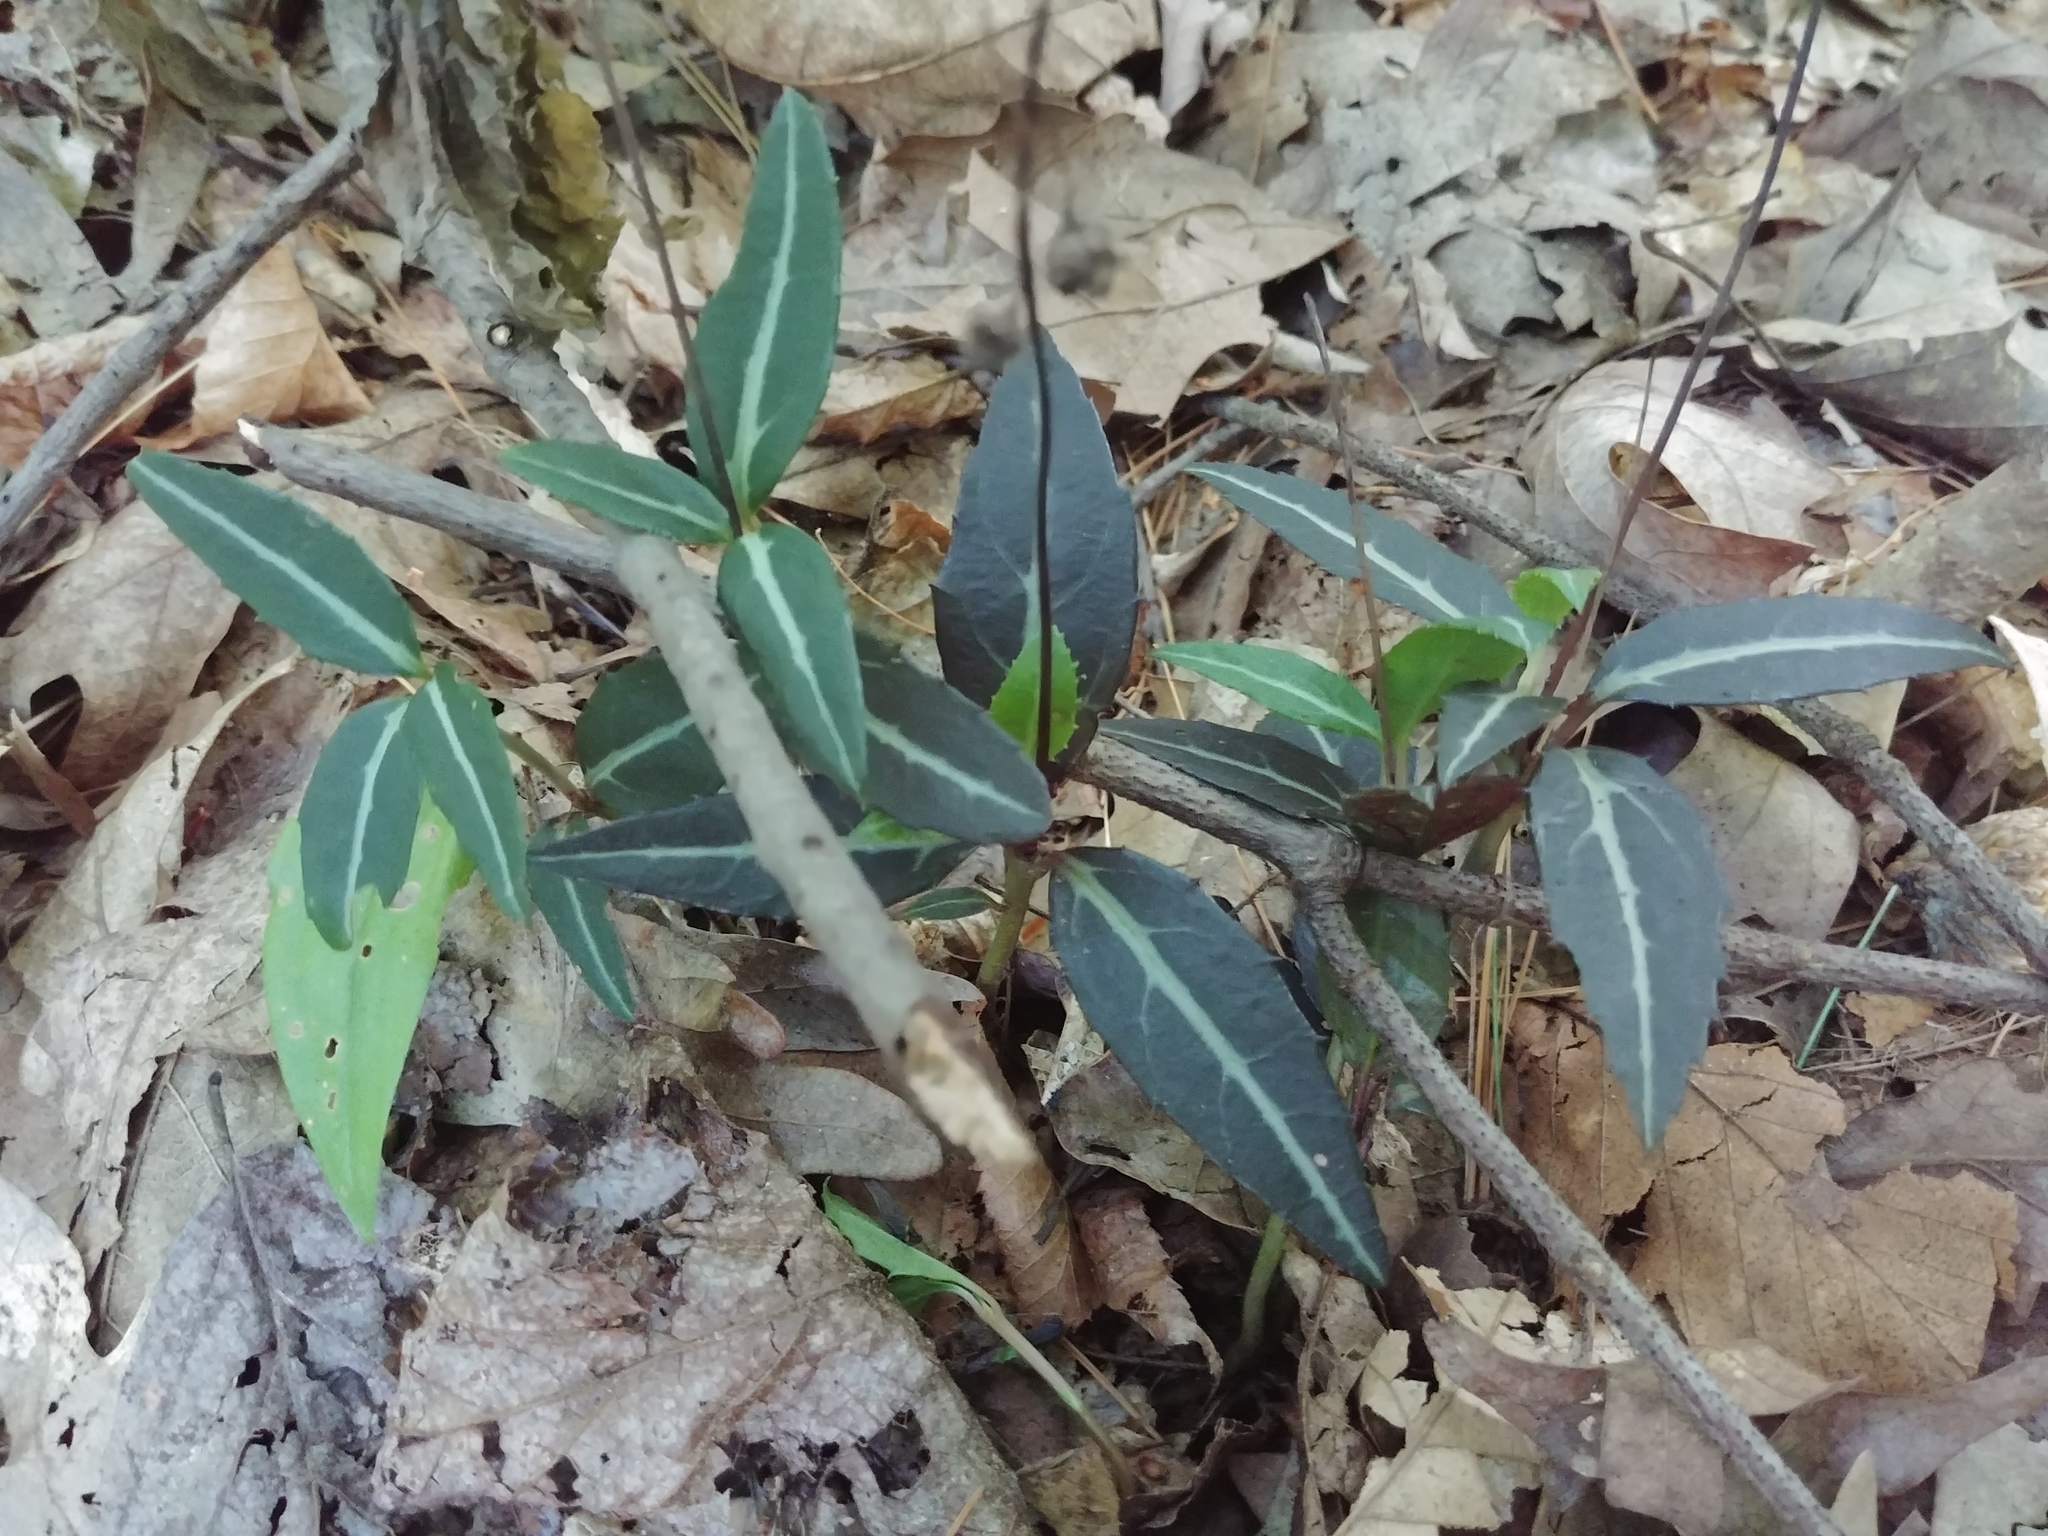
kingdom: Plantae
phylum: Tracheophyta
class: Magnoliopsida
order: Ericales
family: Ericaceae
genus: Chimaphila
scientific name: Chimaphila maculata
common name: Spotted pipsissewa
